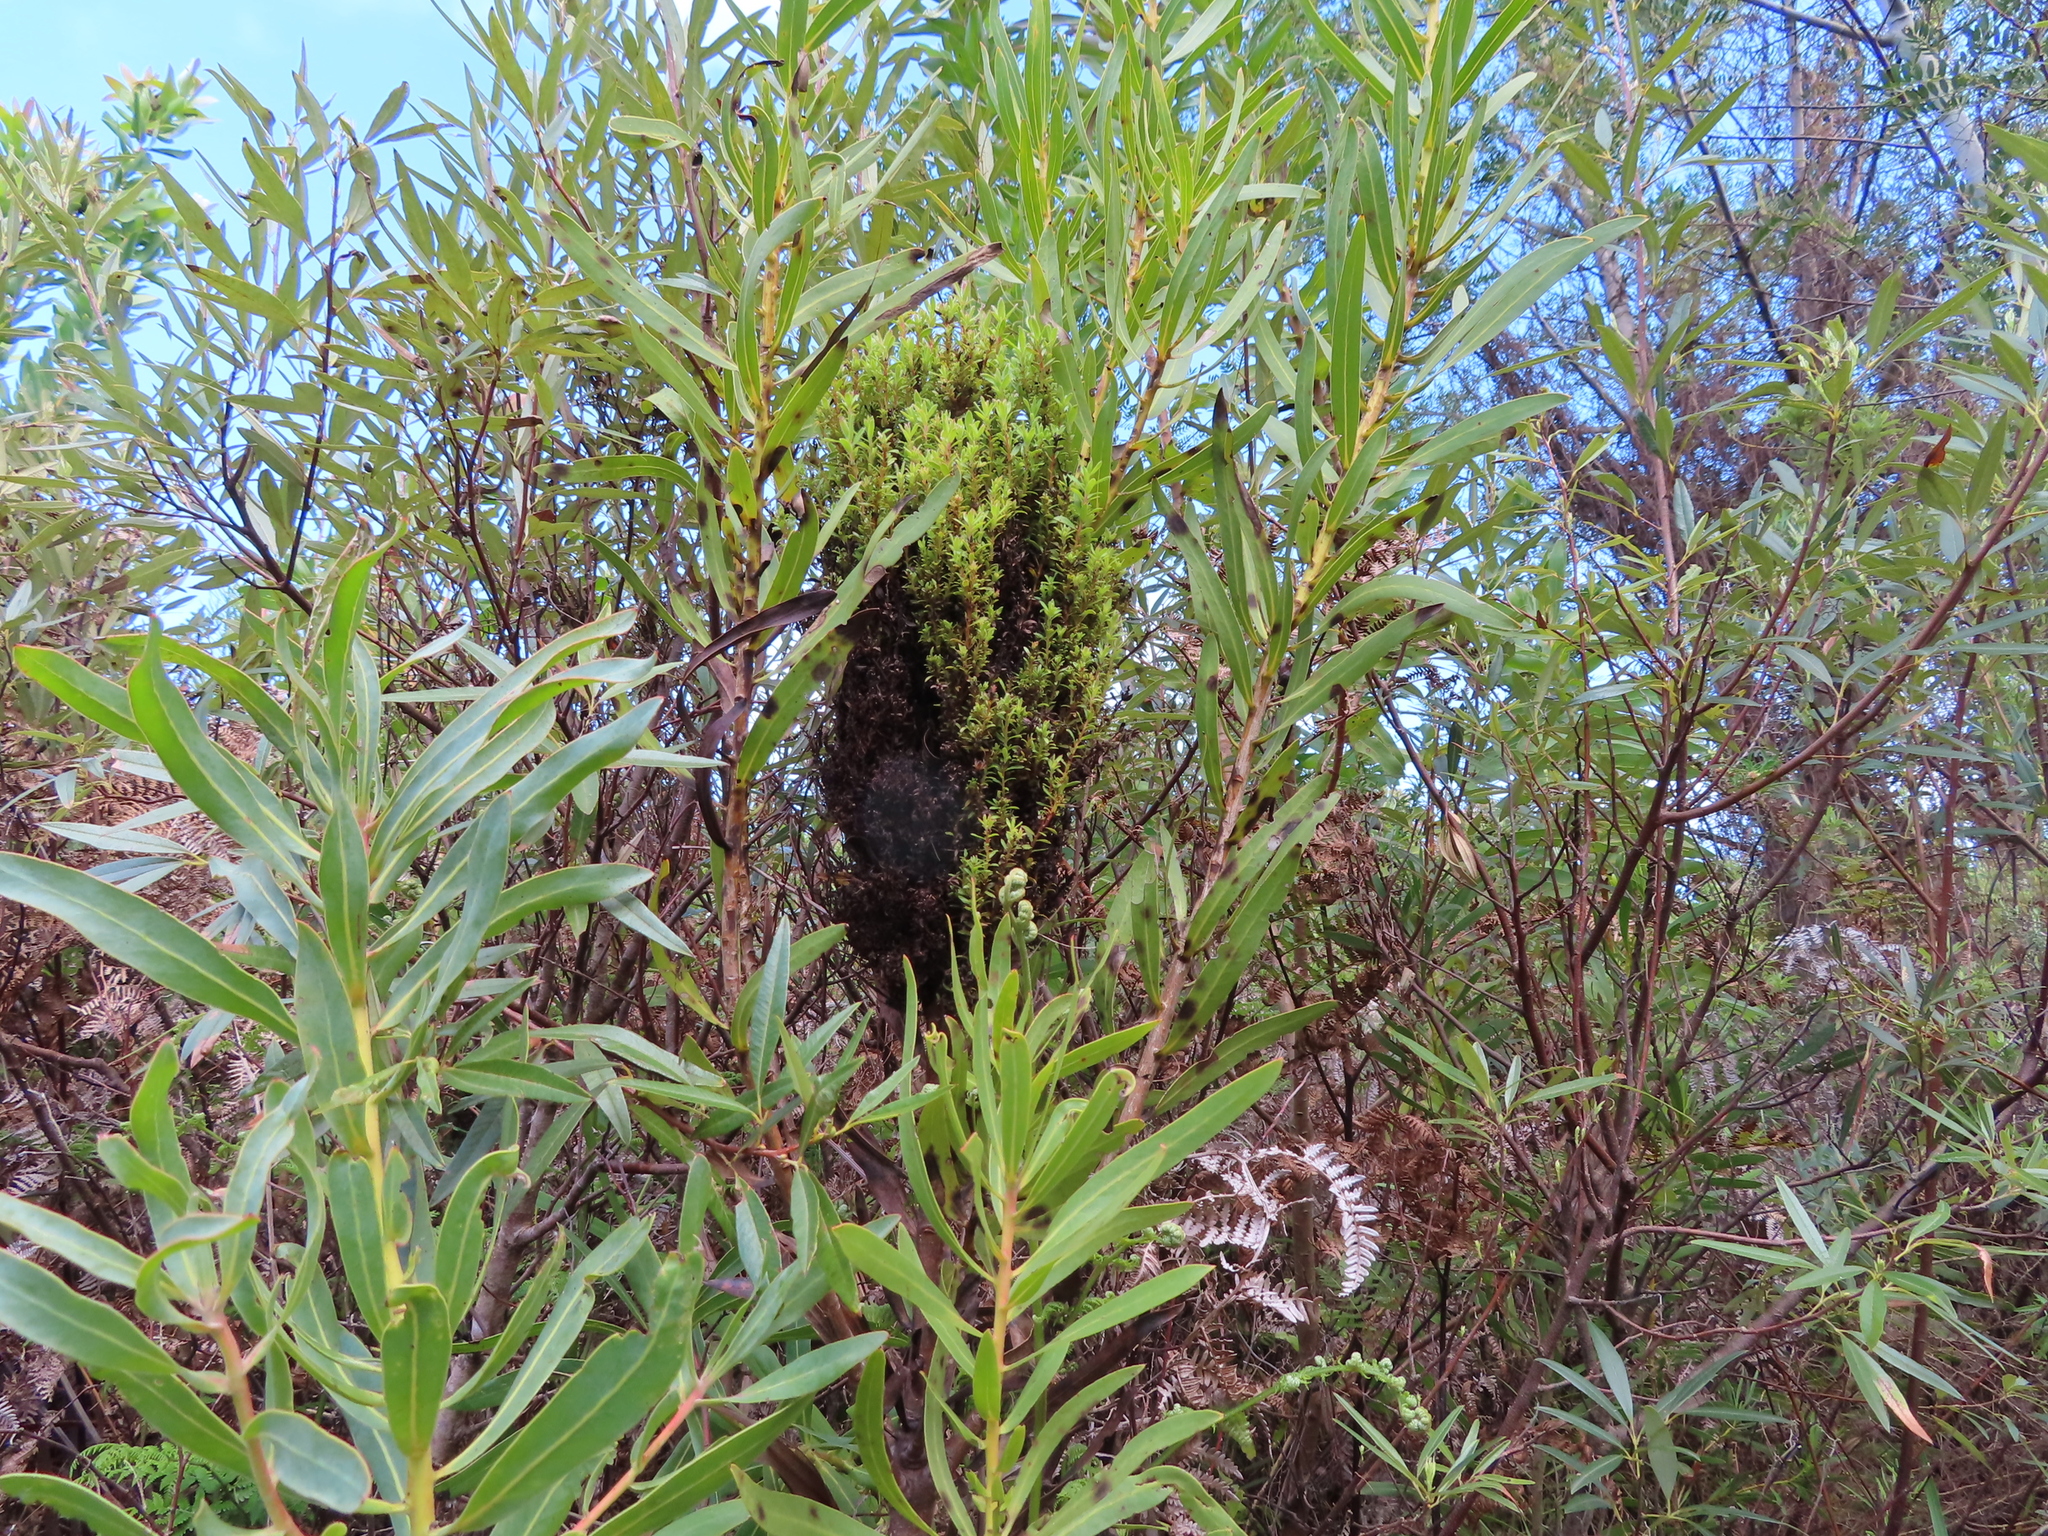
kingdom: Bacteria
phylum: Firmicutes
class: Bacilli
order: Acholeplasmatales
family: Acholeplasmataceae
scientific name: Acholeplasmataceae
